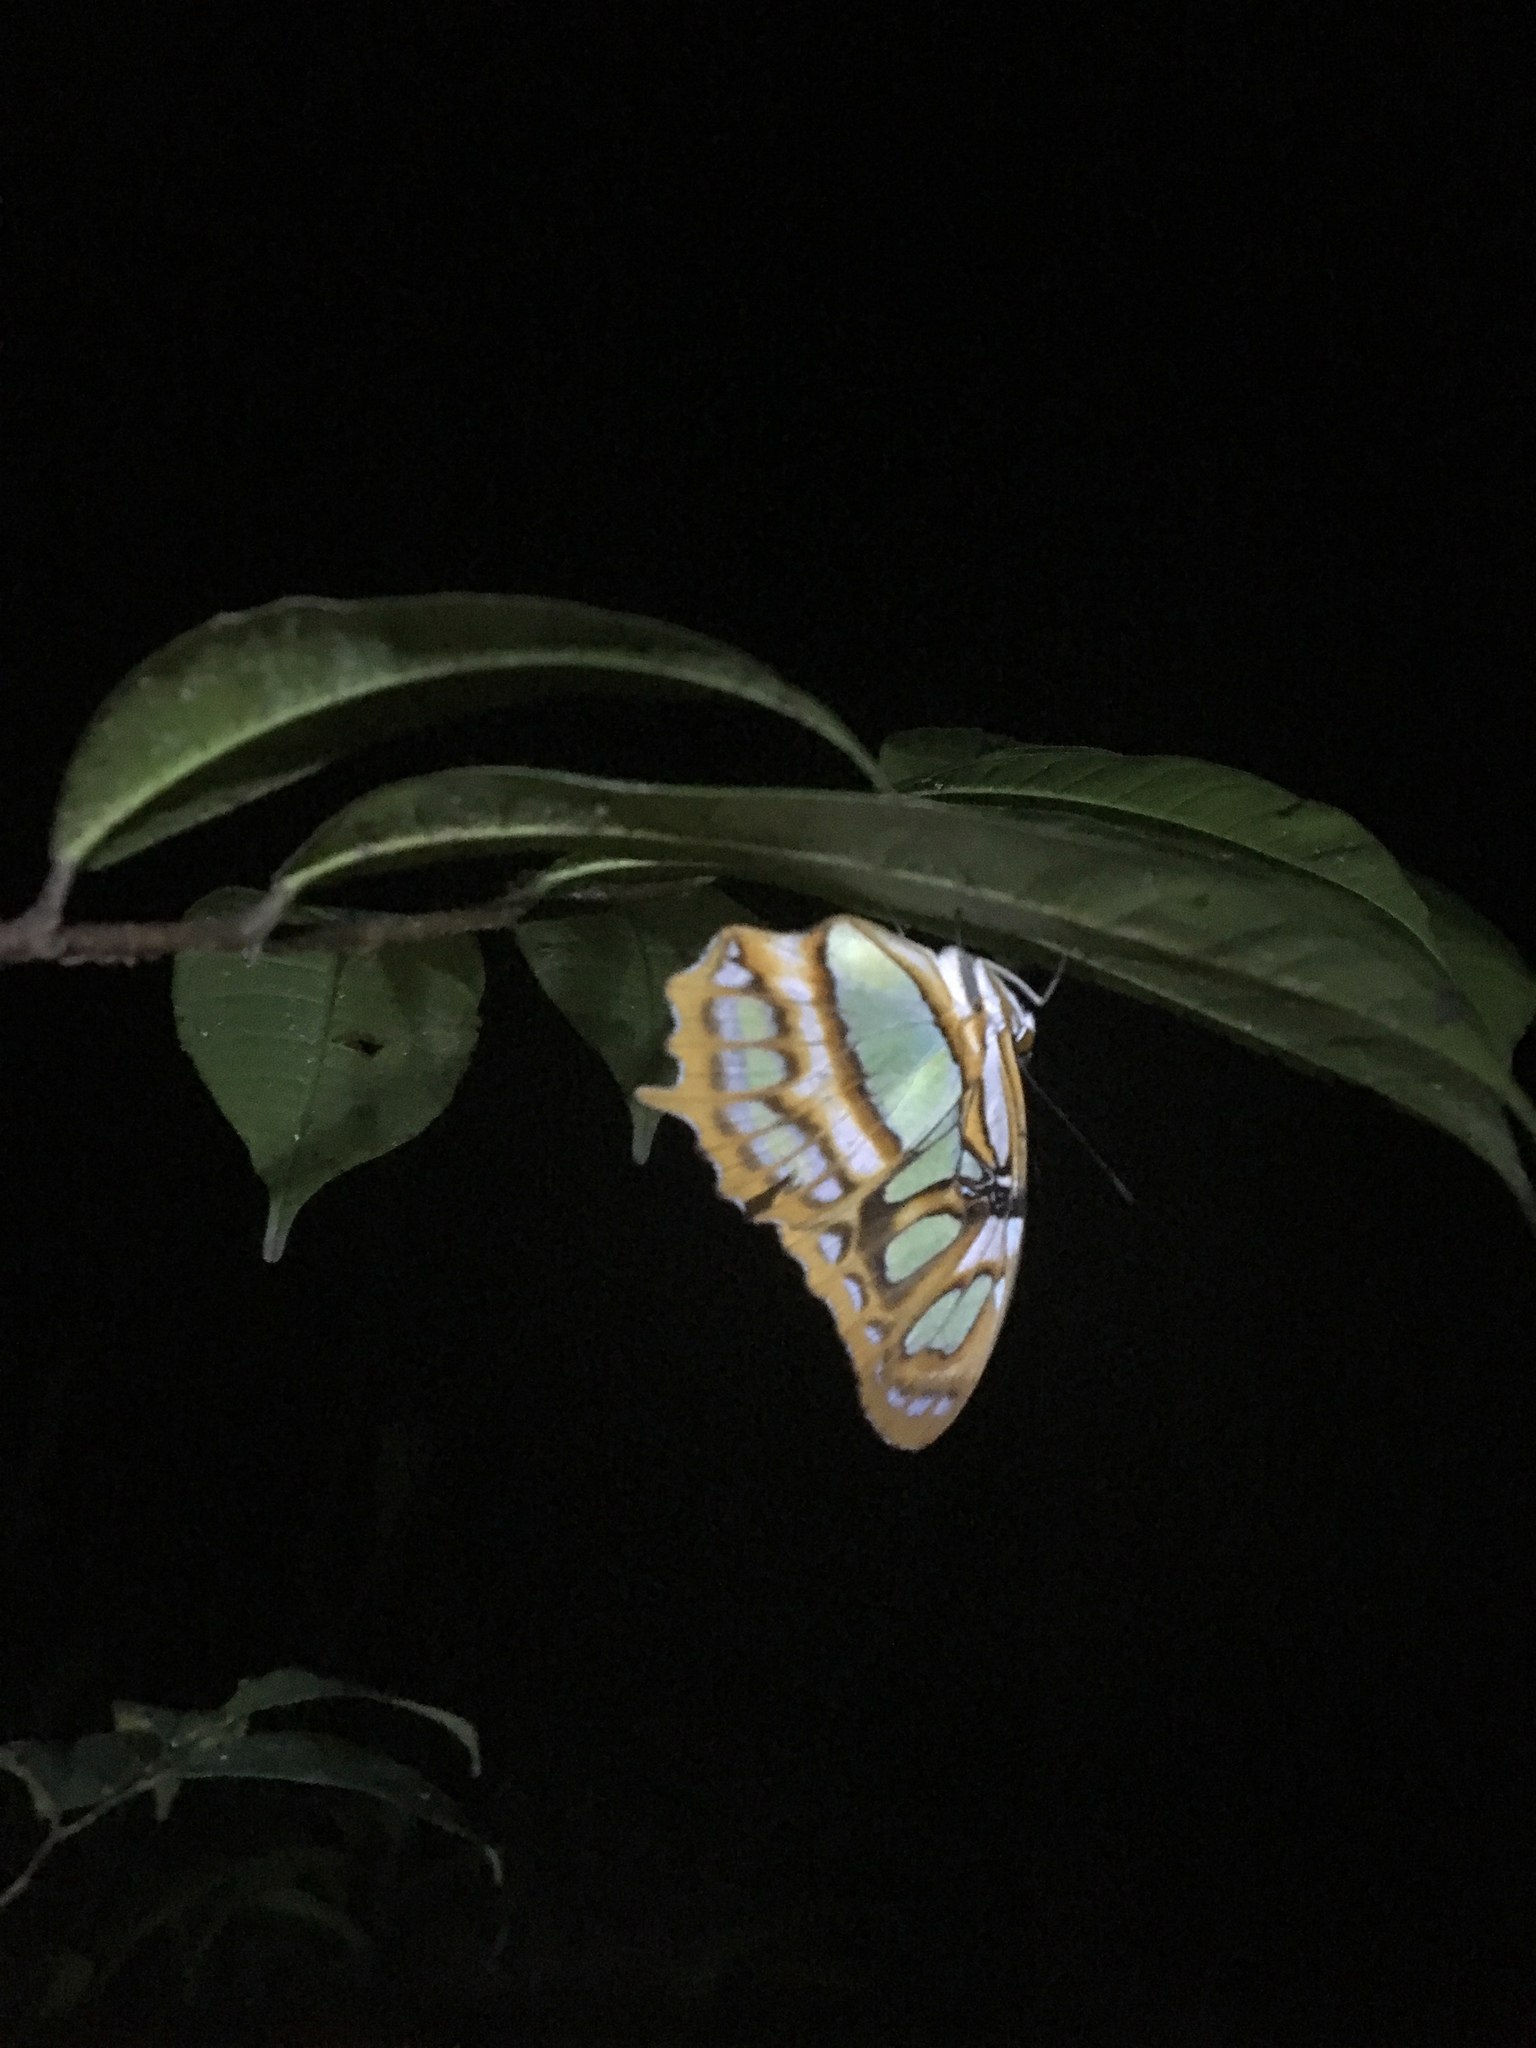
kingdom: Animalia
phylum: Arthropoda
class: Insecta
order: Lepidoptera
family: Nymphalidae
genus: Siproeta
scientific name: Siproeta stelenes
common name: Malachite
